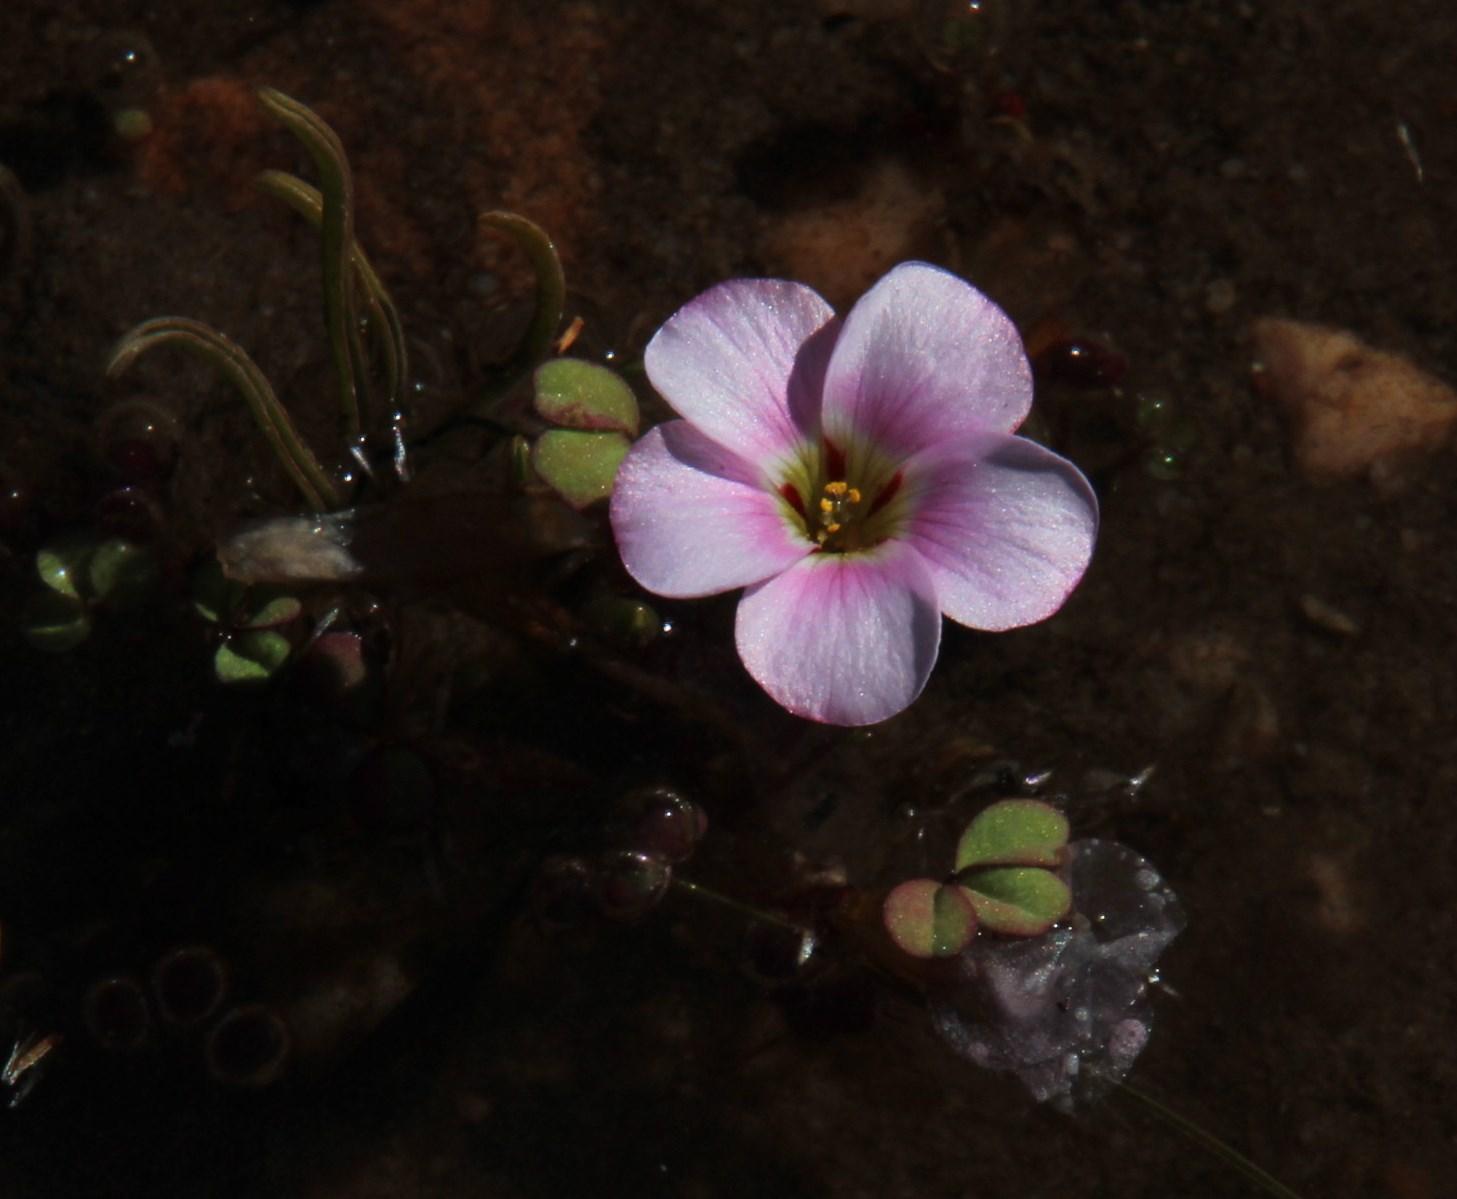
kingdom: Plantae
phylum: Tracheophyta
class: Magnoliopsida
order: Oxalidales
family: Oxalidaceae
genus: Oxalis
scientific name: Oxalis amblyosepala
